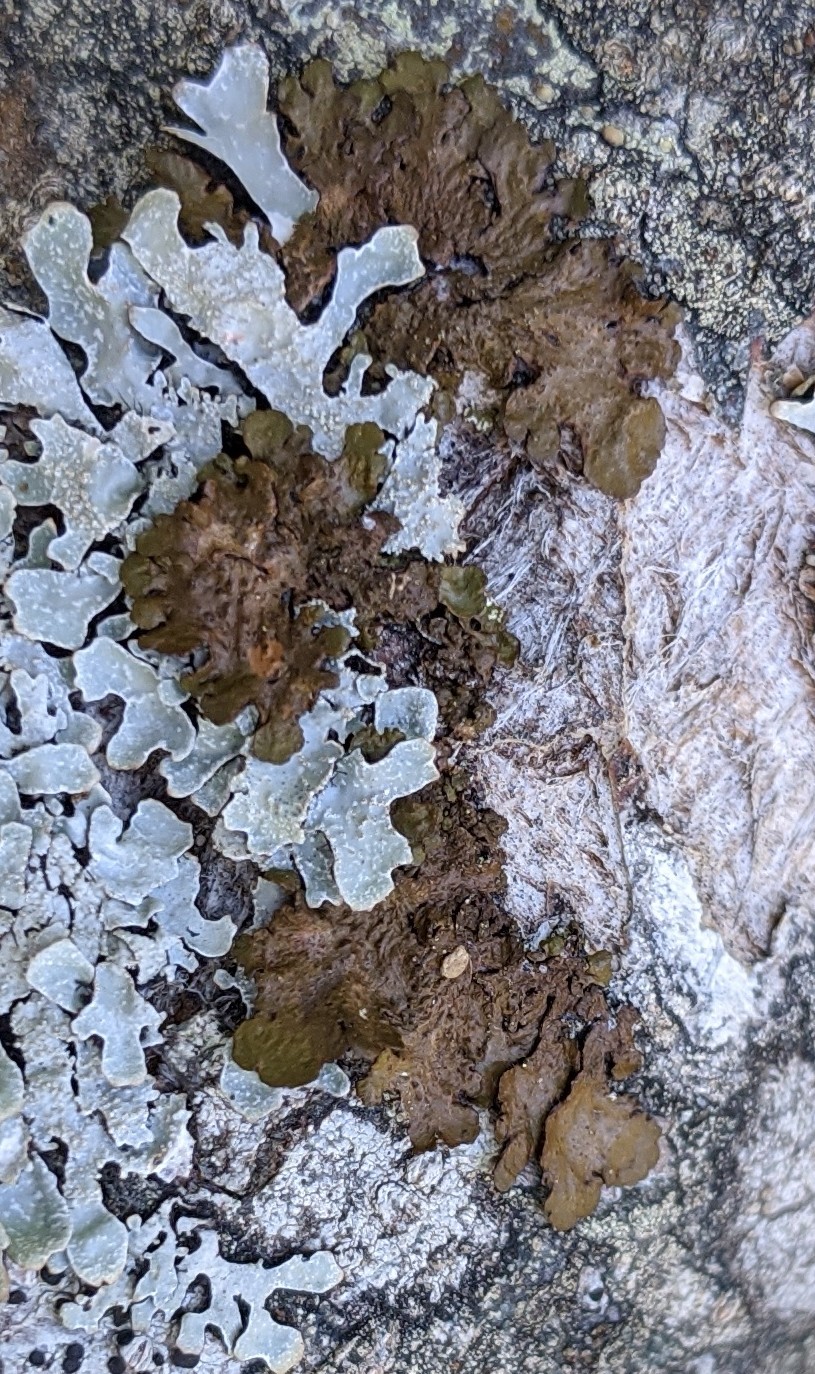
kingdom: Fungi
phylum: Ascomycota
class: Lecanoromycetes
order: Lecanorales
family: Parmeliaceae
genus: Melanelixia
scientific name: Melanelixia subaurifera
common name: Abraded camouflage lichen
